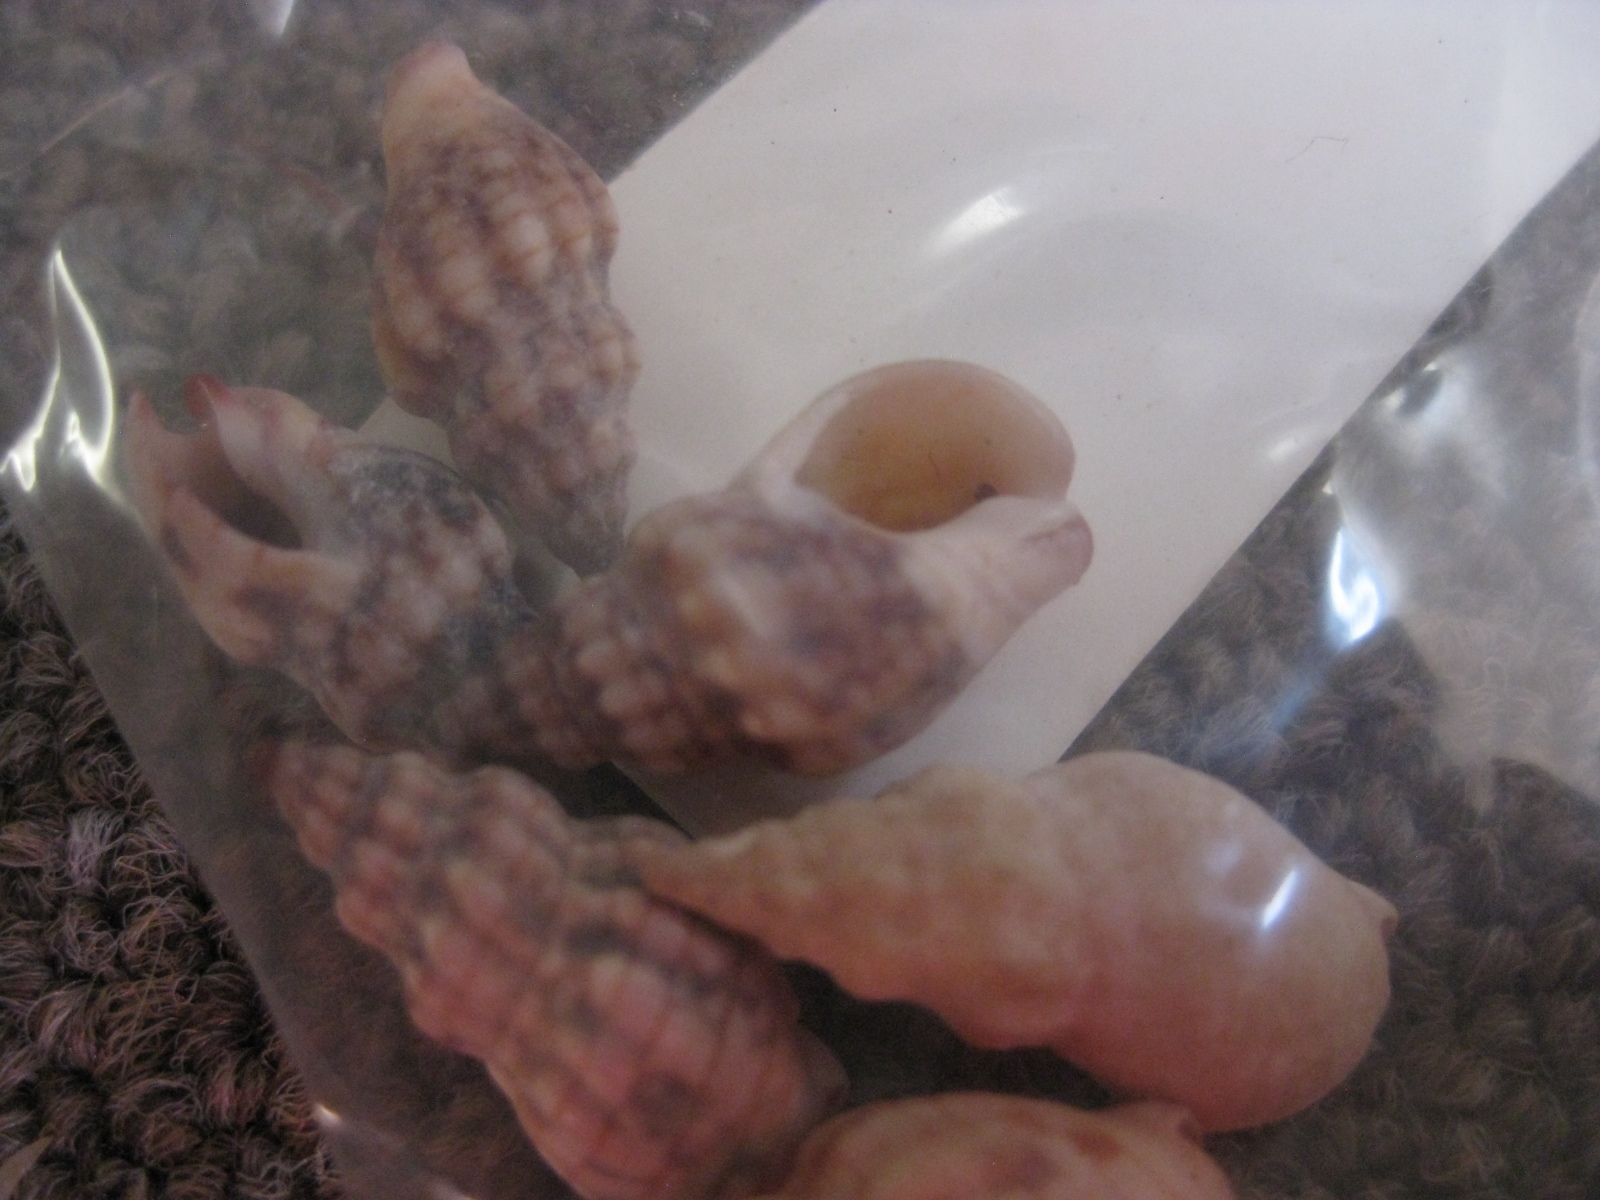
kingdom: Animalia
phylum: Mollusca
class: Gastropoda
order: Neogastropoda
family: Cominellidae
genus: Cominella
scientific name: Cominella quoyana
